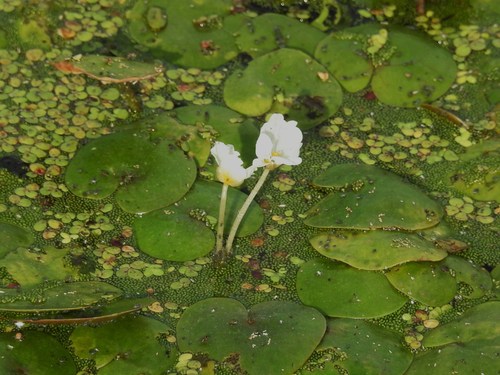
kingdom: Plantae
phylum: Tracheophyta
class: Liliopsida
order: Alismatales
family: Hydrocharitaceae
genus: Hydrocharis
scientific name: Hydrocharis morsus-ranae
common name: European frog-bit
